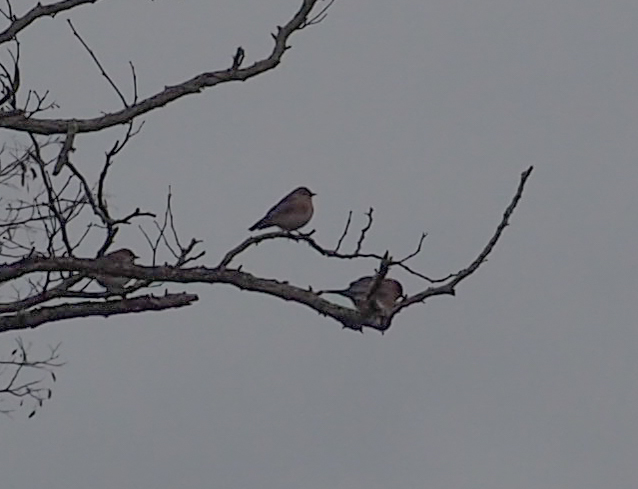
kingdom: Animalia
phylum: Chordata
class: Aves
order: Passeriformes
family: Turdidae
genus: Sialia
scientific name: Sialia sialis
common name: Eastern bluebird
